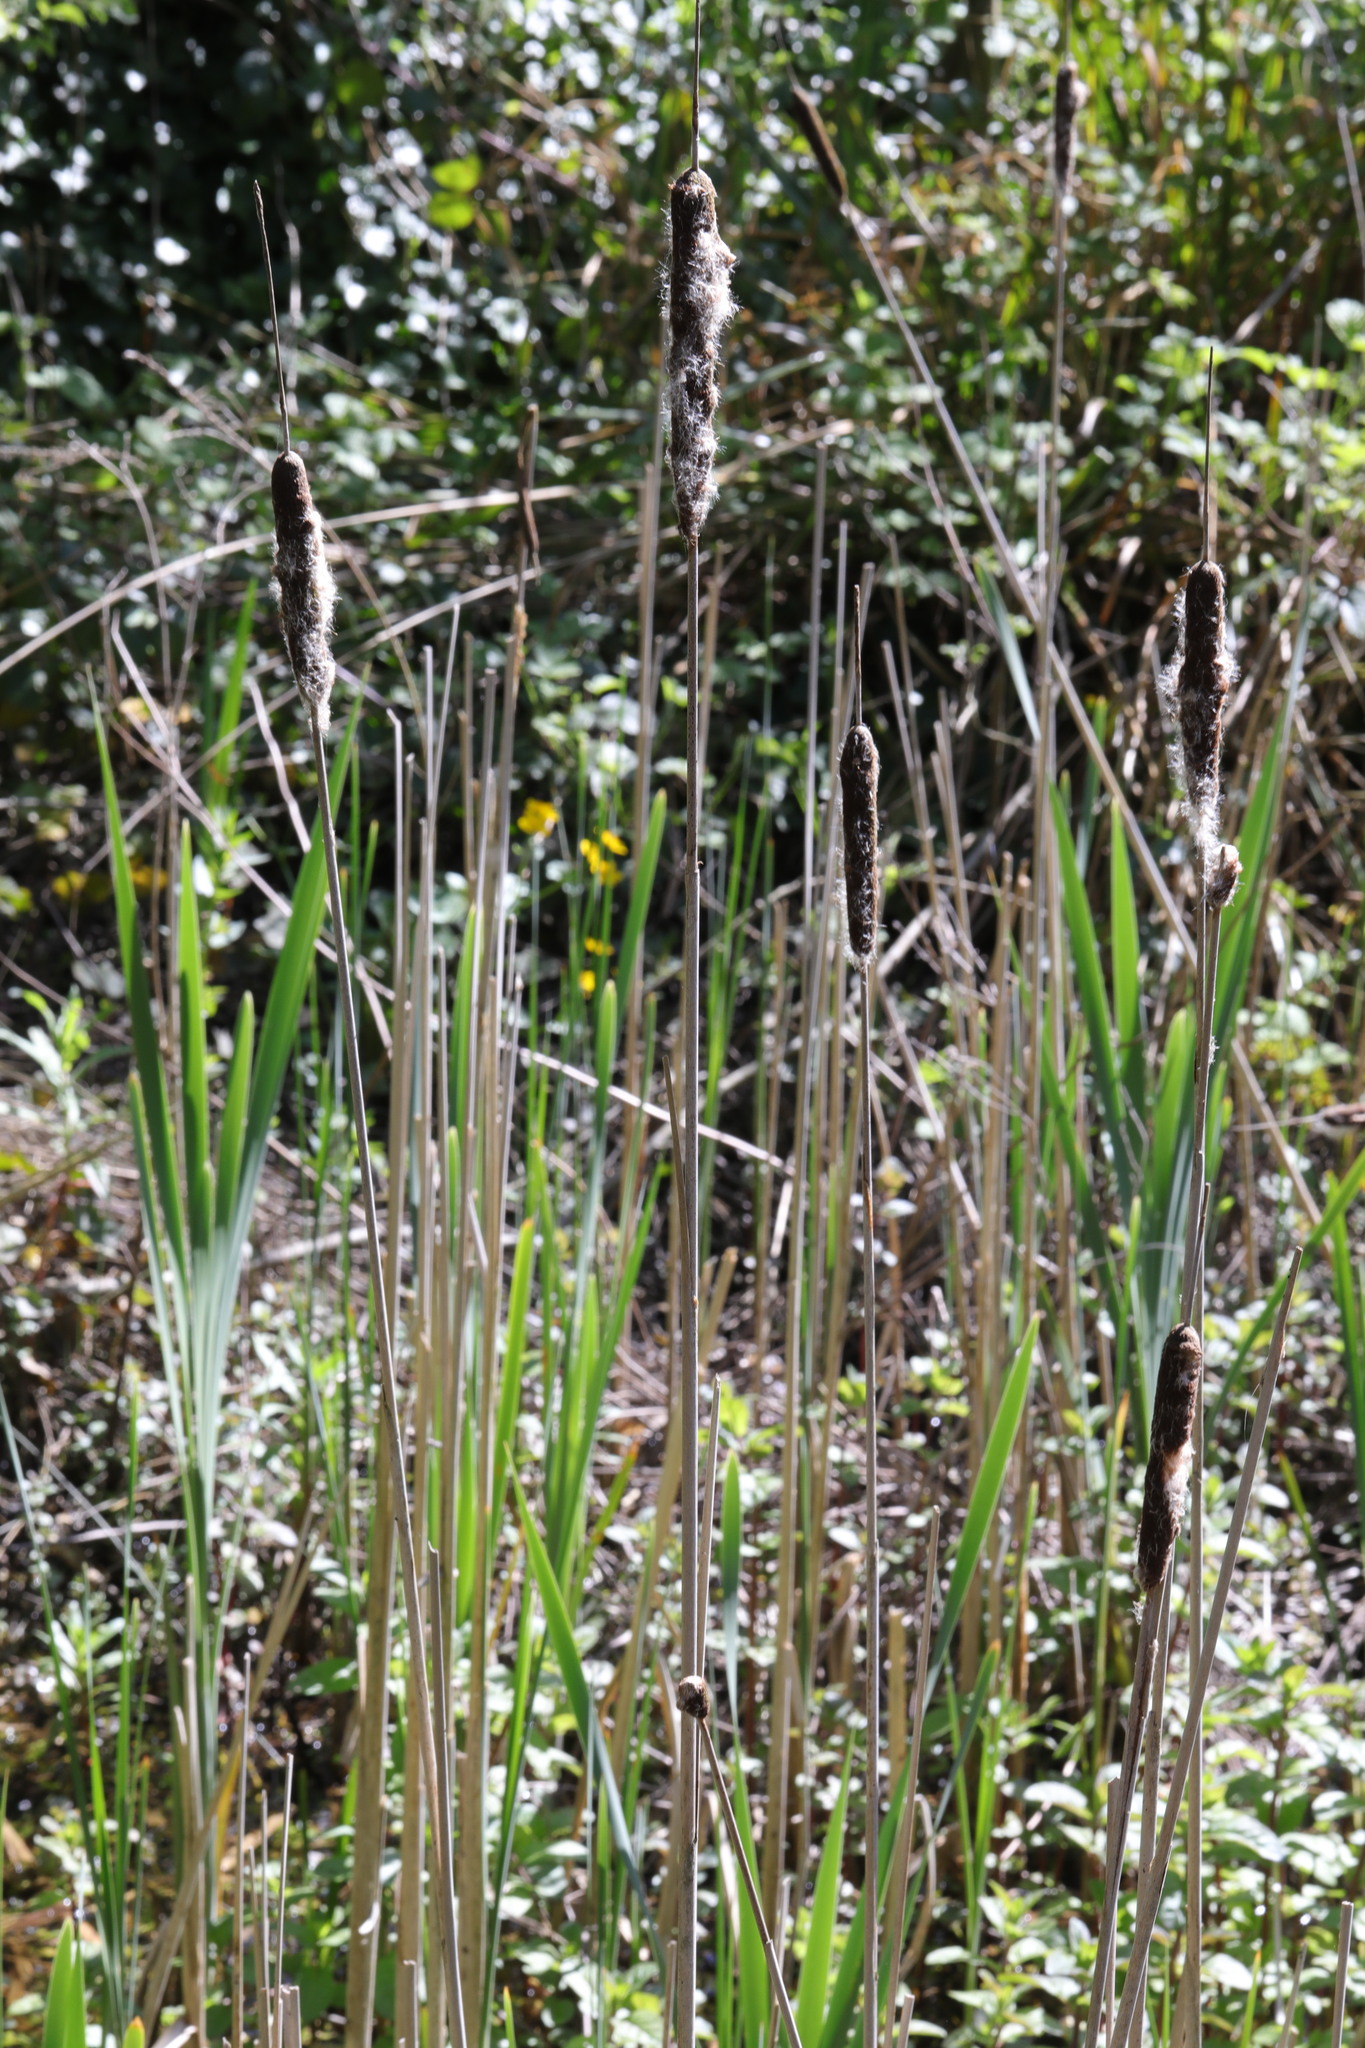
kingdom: Plantae
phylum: Tracheophyta
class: Liliopsida
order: Poales
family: Typhaceae
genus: Typha
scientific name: Typha latifolia
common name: Broadleaf cattail
